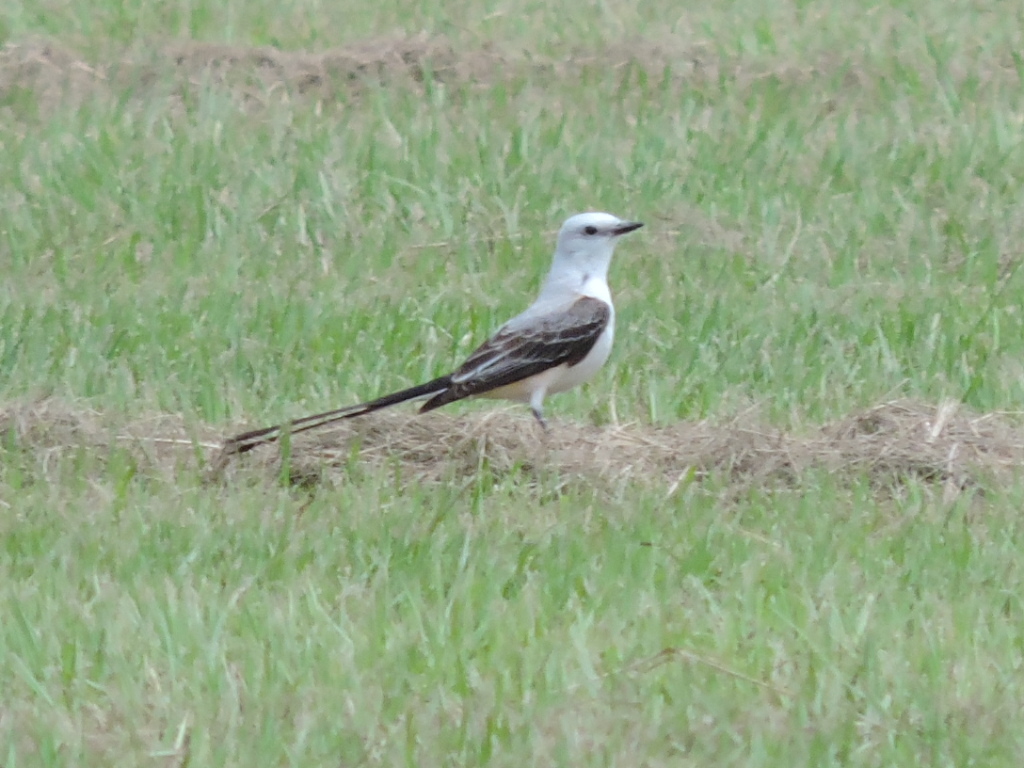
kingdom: Animalia
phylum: Chordata
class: Aves
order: Passeriformes
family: Tyrannidae
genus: Tyrannus
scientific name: Tyrannus forficatus
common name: Scissor-tailed flycatcher
